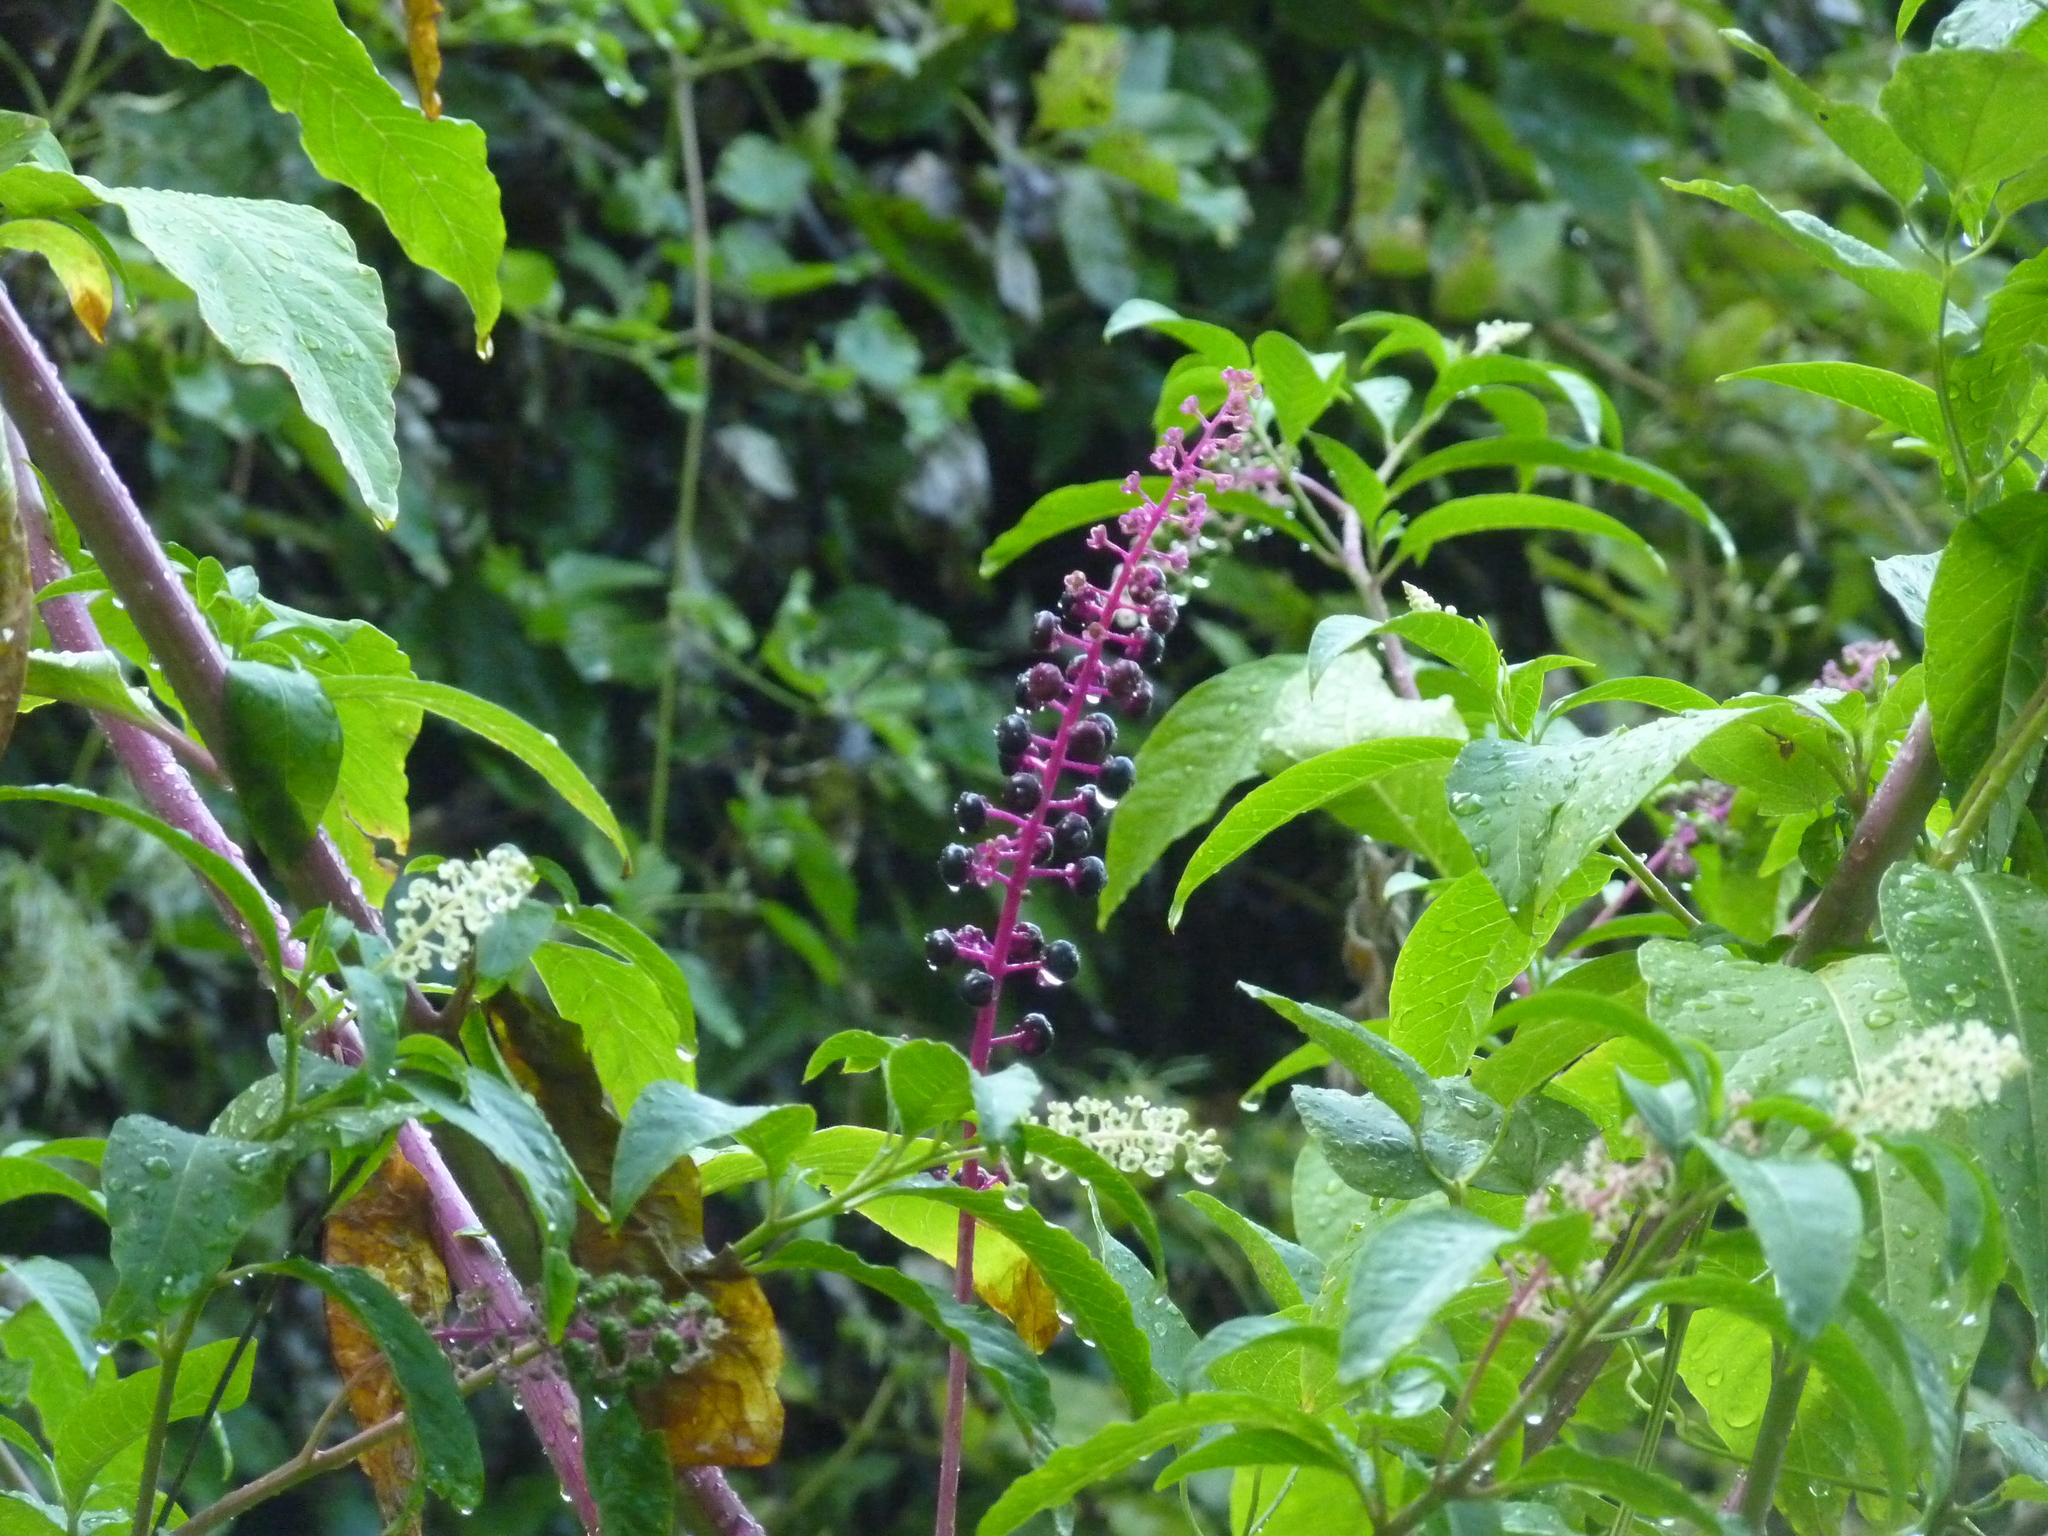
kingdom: Plantae
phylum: Tracheophyta
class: Magnoliopsida
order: Caryophyllales
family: Phytolaccaceae
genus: Phytolacca
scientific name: Phytolacca americana
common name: American pokeweed
